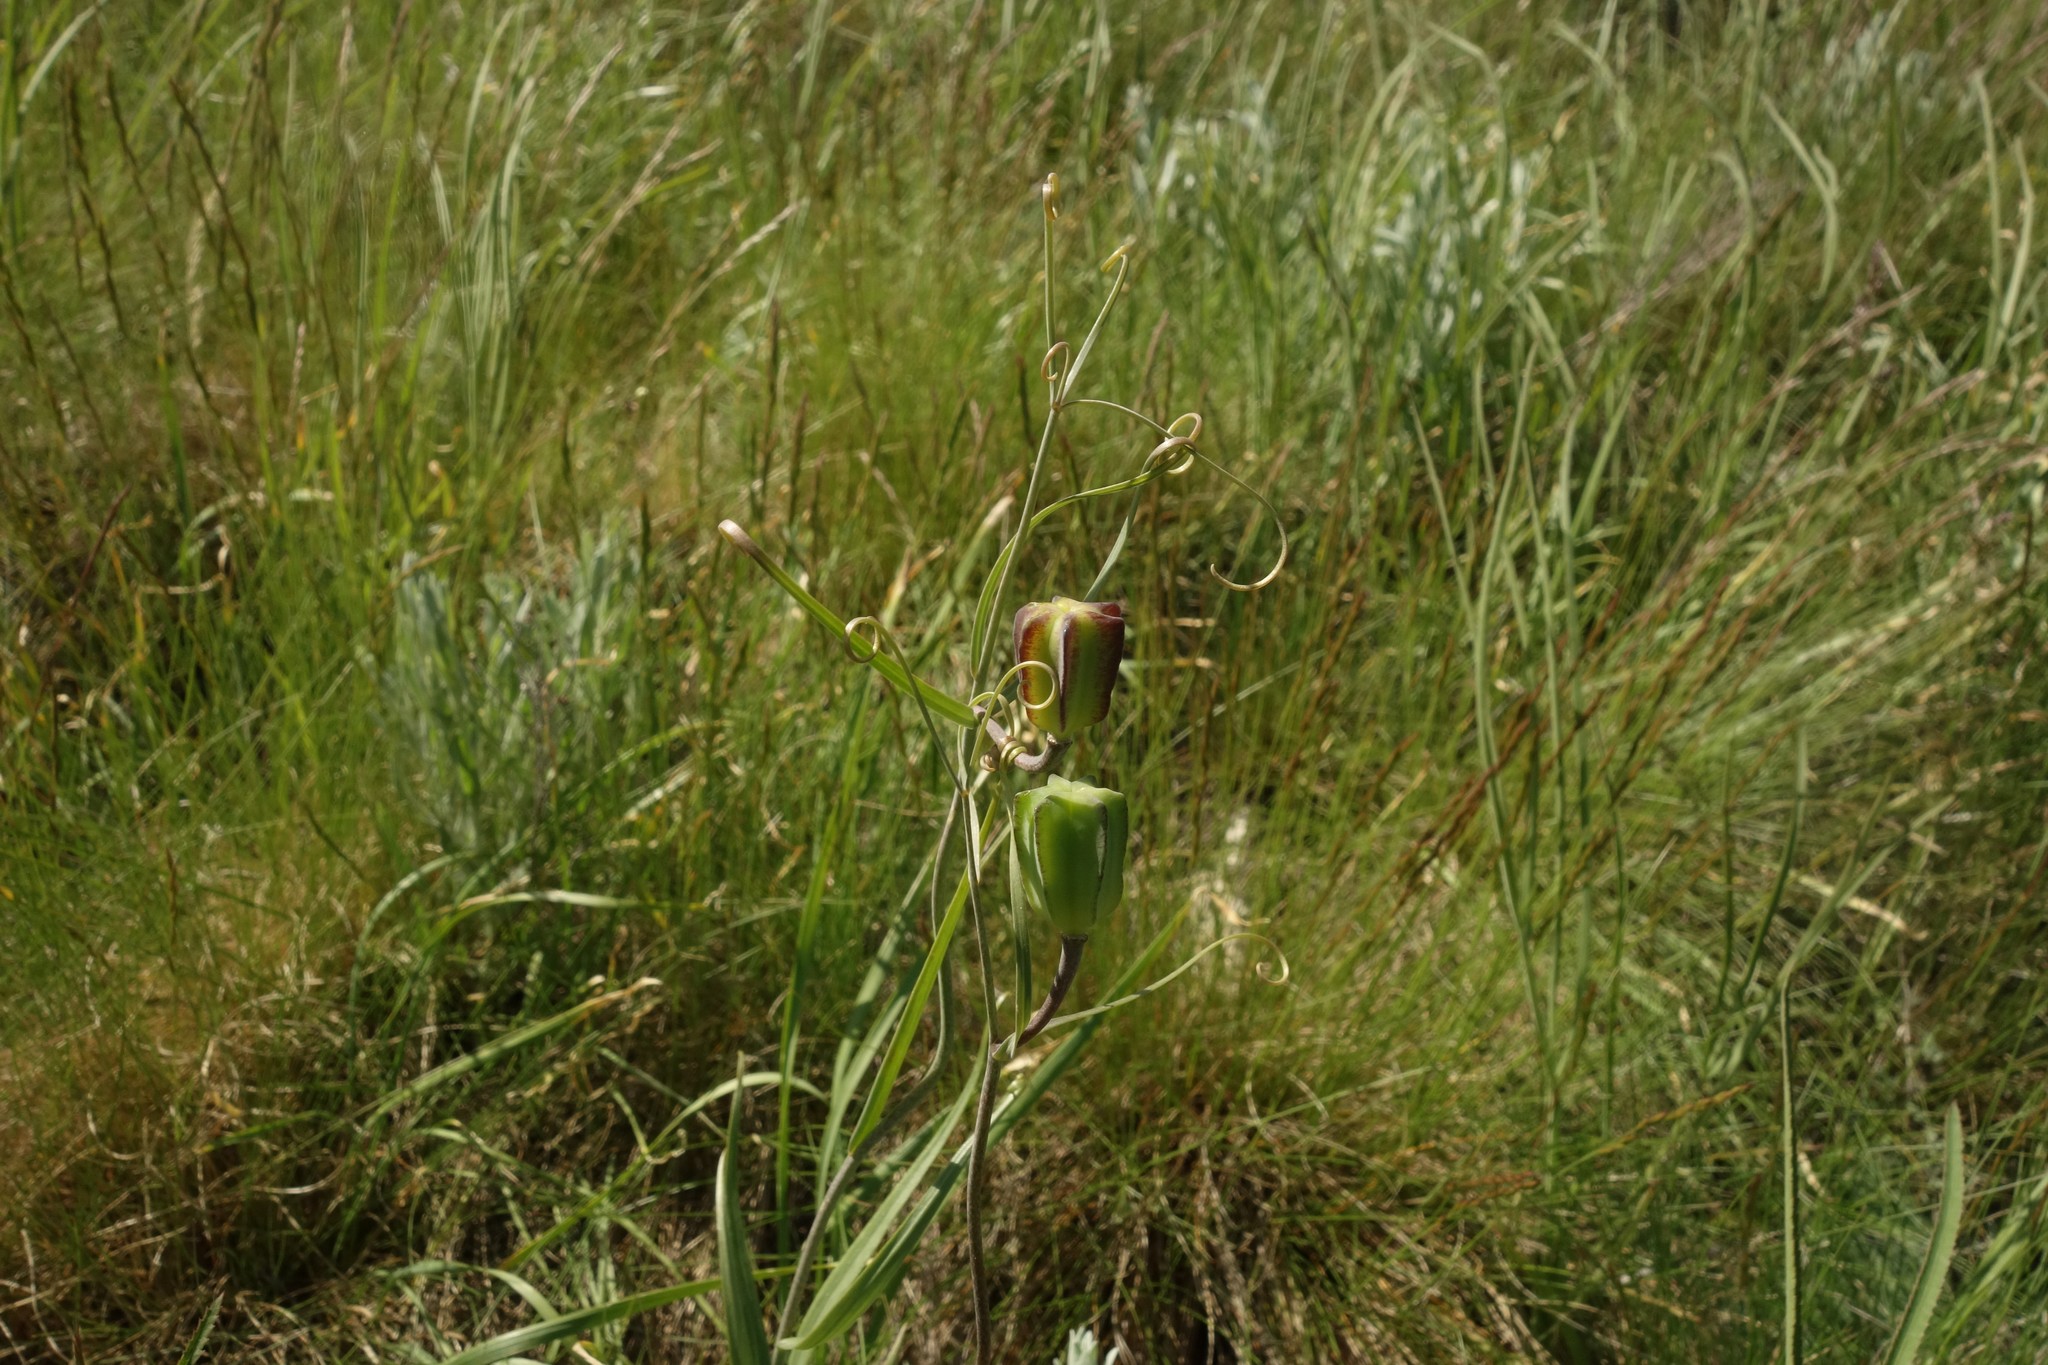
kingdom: Plantae
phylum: Tracheophyta
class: Liliopsida
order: Liliales
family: Liliaceae
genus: Fritillaria
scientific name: Fritillaria ruthenica
